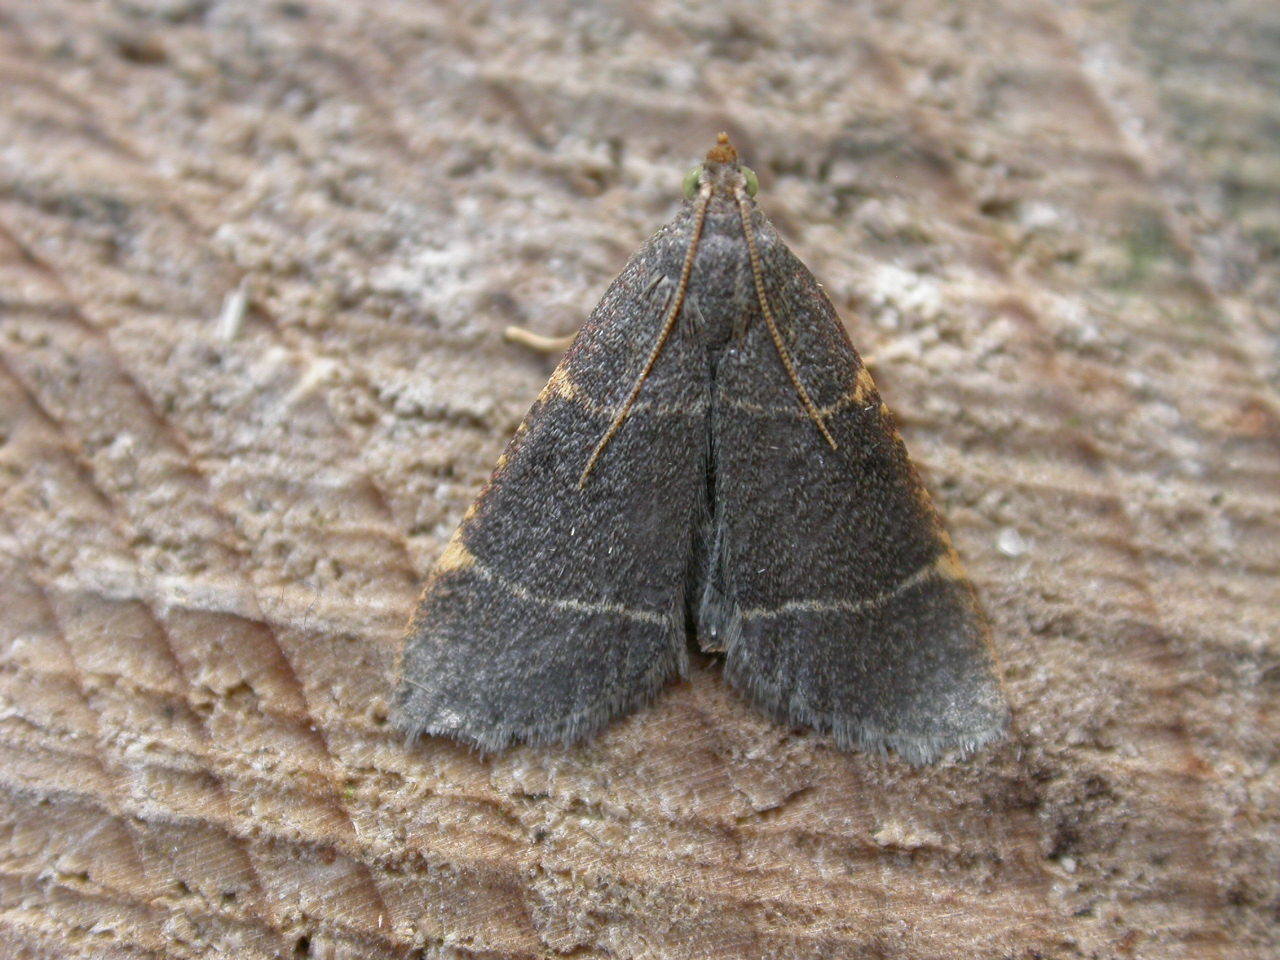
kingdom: Animalia
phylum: Arthropoda
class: Insecta
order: Lepidoptera
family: Pyralidae
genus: Hypsopygia
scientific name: Hypsopygia glaucinalis
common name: Double-striped tabby
